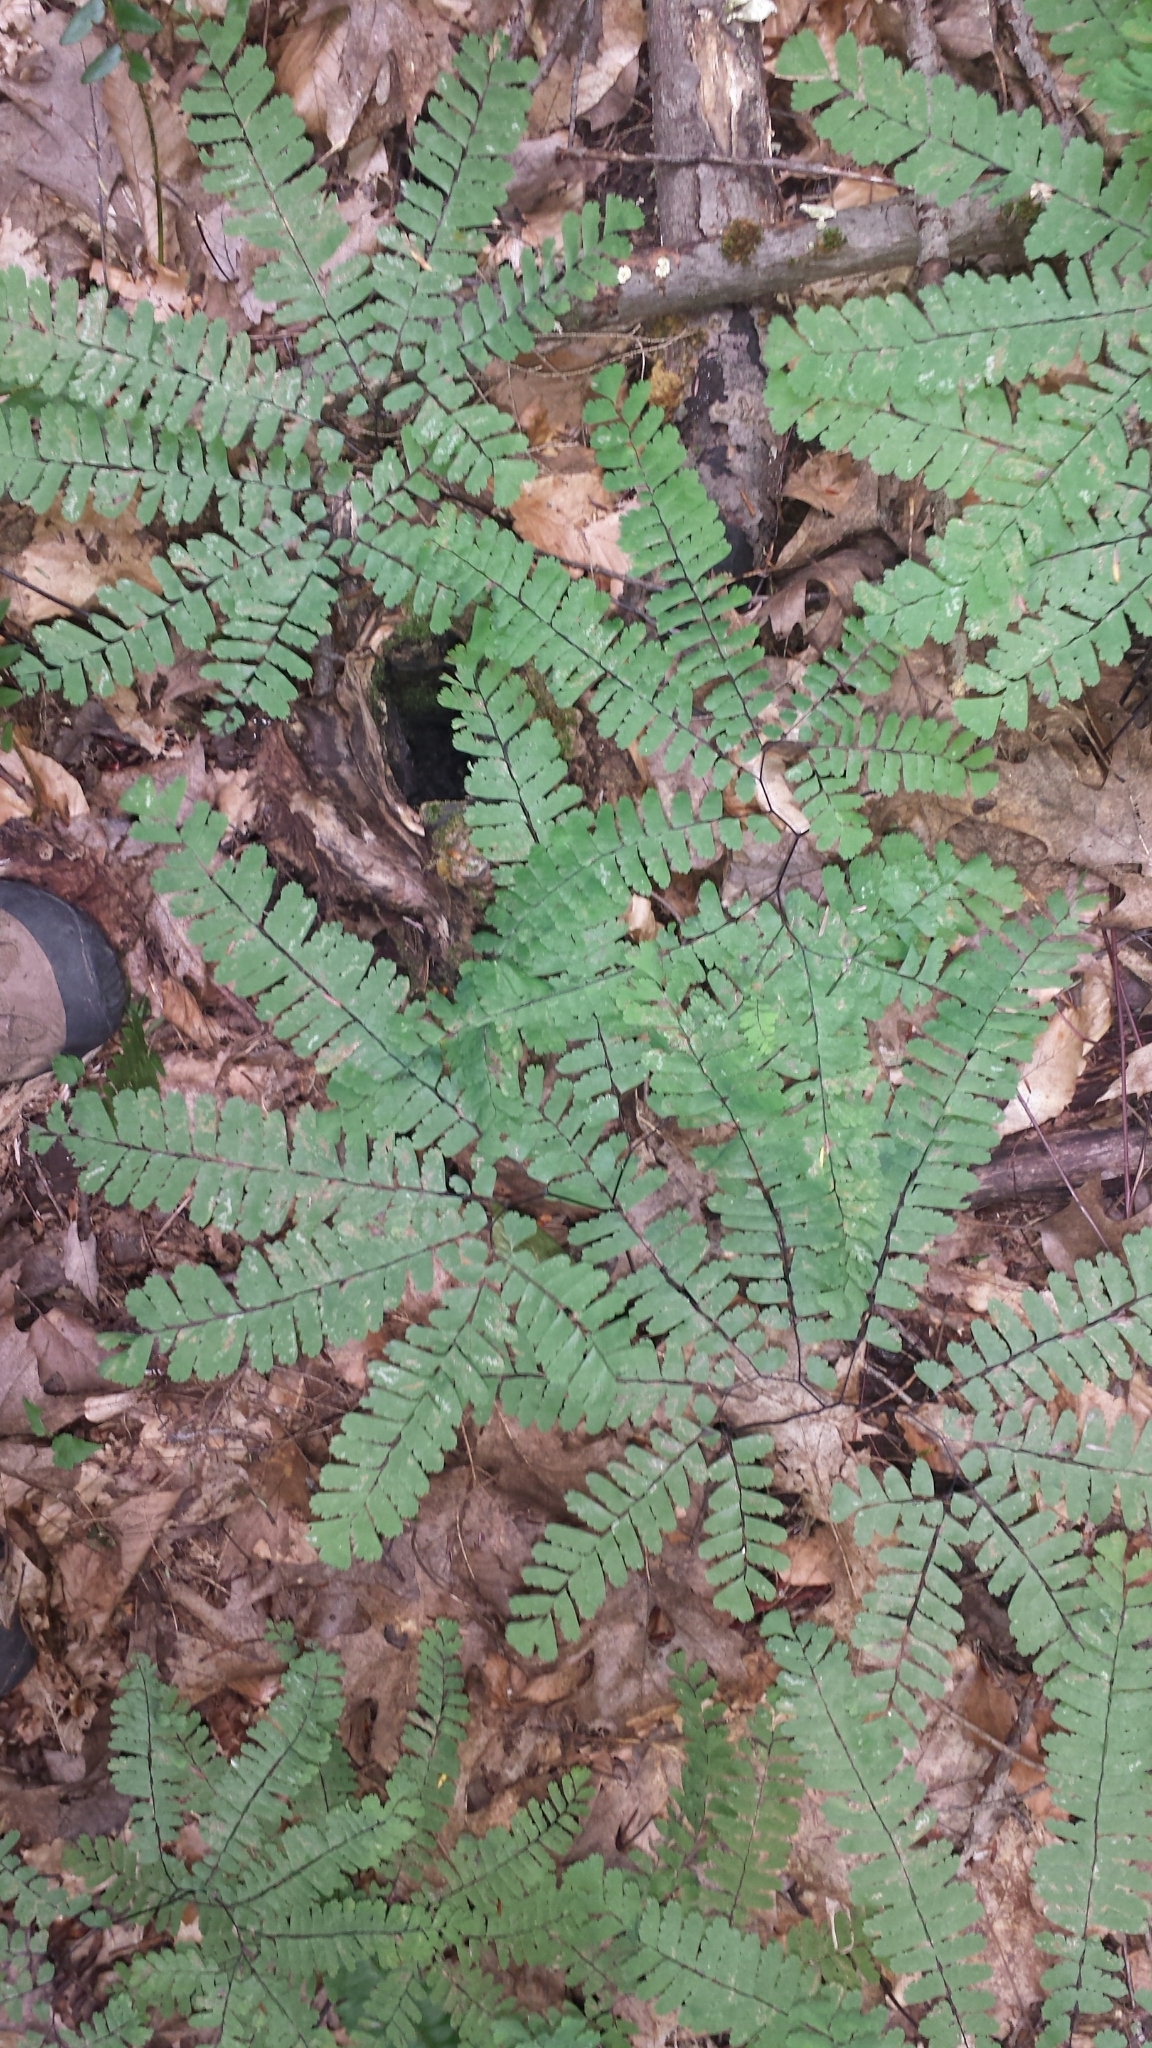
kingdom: Plantae
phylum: Tracheophyta
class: Polypodiopsida
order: Polypodiales
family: Pteridaceae
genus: Adiantum
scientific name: Adiantum pedatum
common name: Five-finger fern
